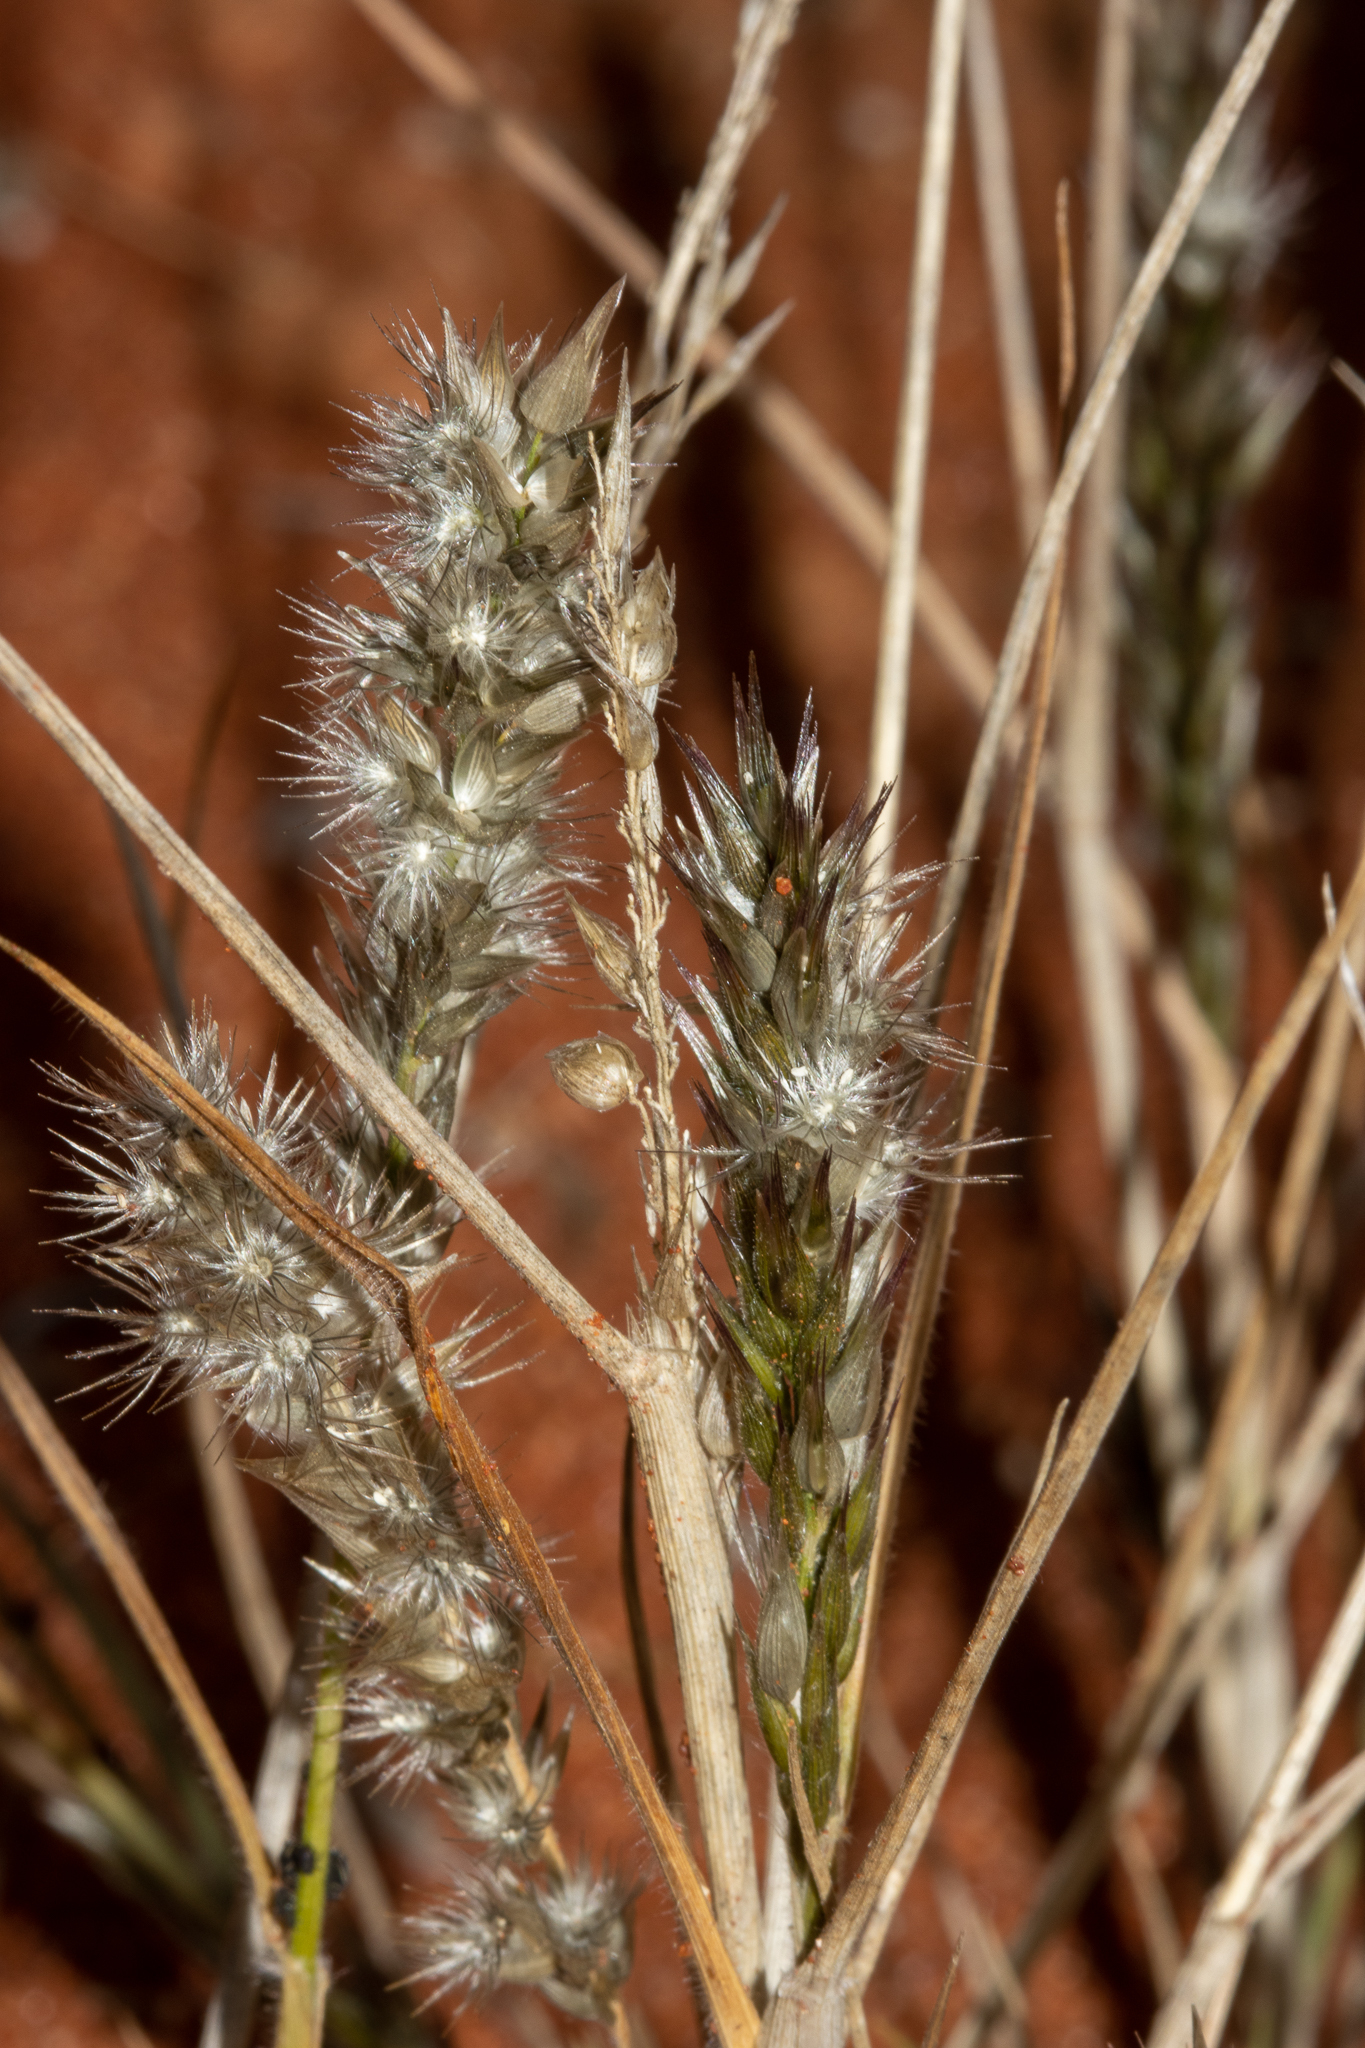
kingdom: Plantae
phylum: Tracheophyta
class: Liliopsida
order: Poales
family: Poaceae
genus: Enneapogon
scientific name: Enneapogon polyphyllus
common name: Leafy nineawn
